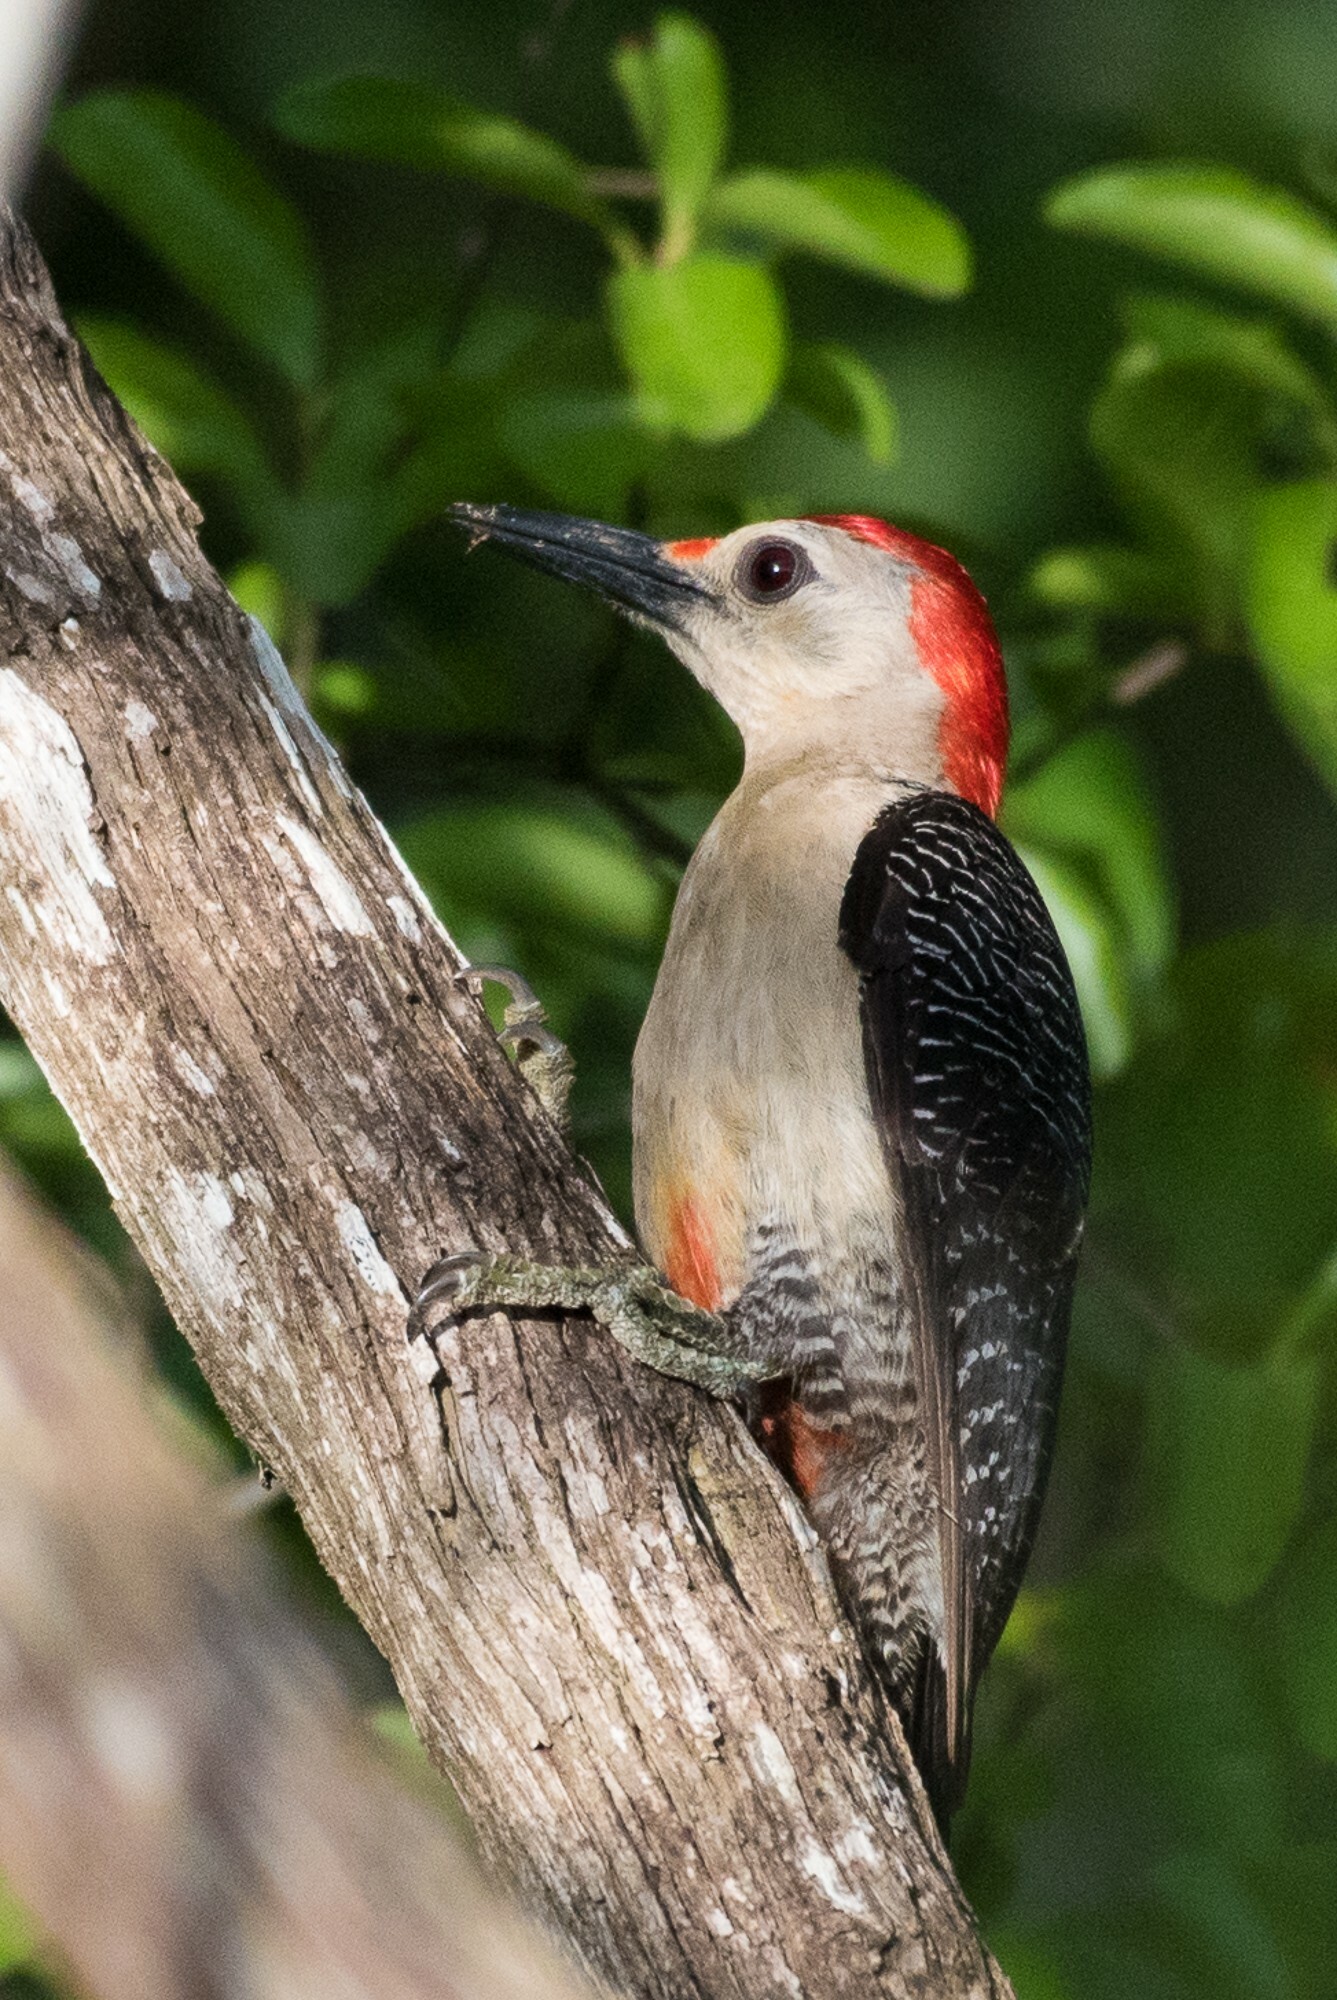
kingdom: Animalia
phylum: Chordata
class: Aves
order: Piciformes
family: Picidae
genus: Melanerpes
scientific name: Melanerpes aurifrons
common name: Golden-fronted woodpecker
